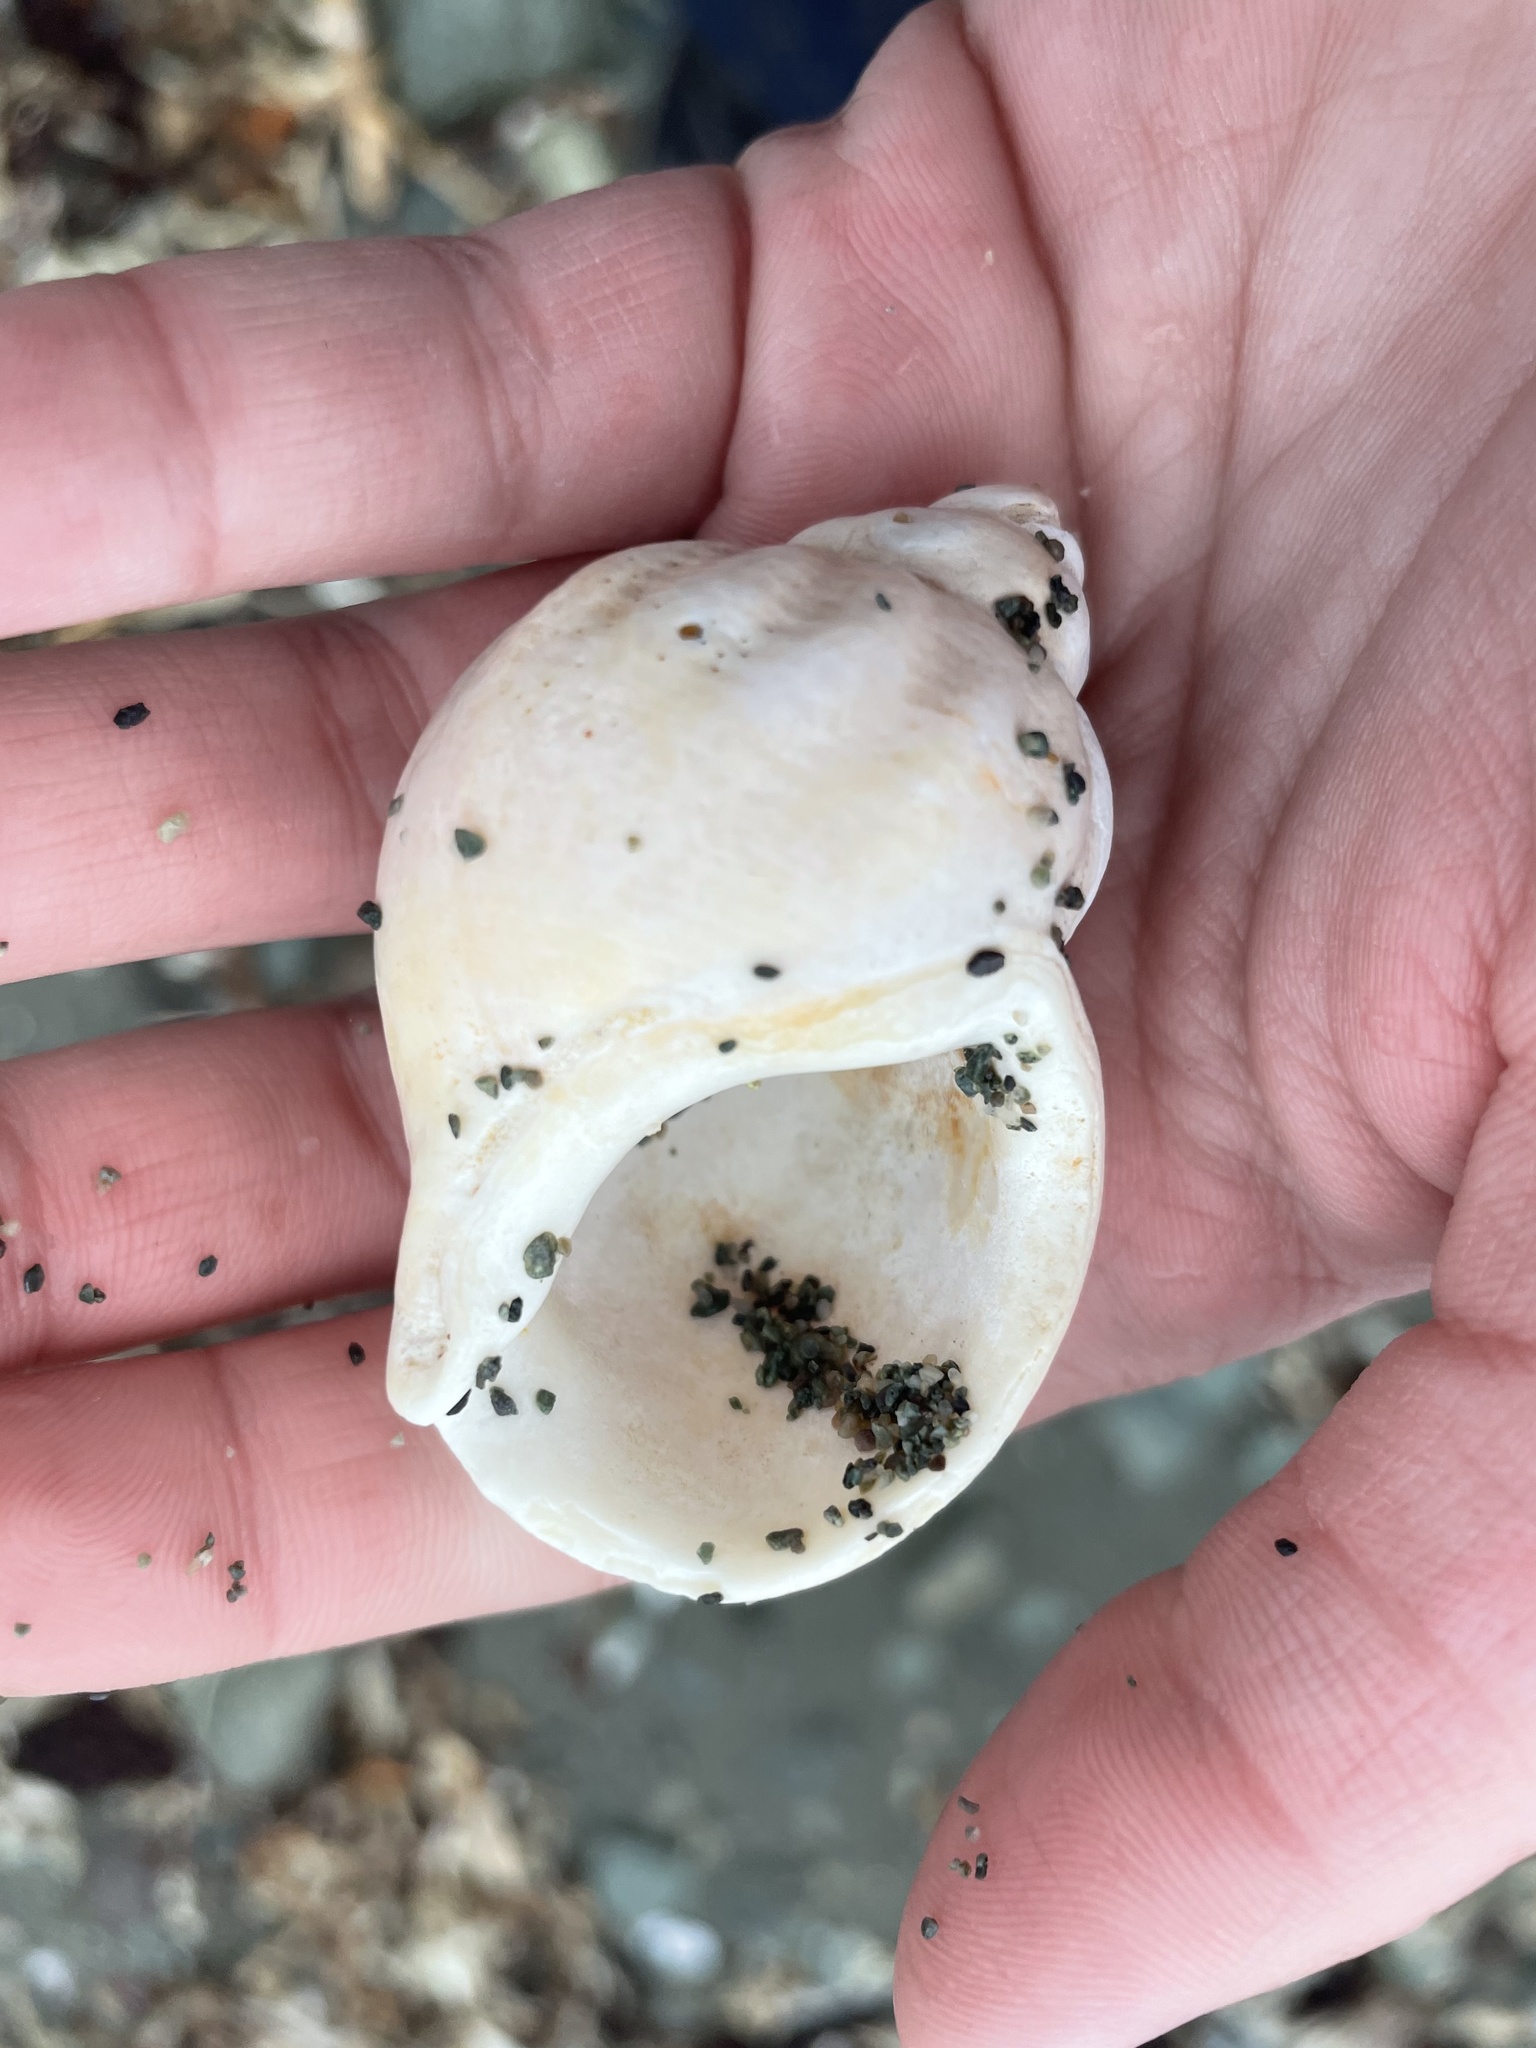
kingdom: Animalia
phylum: Mollusca
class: Gastropoda
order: Neogastropoda
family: Buccinidae
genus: Buccinum
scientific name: Buccinum undatum
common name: Common whelk
